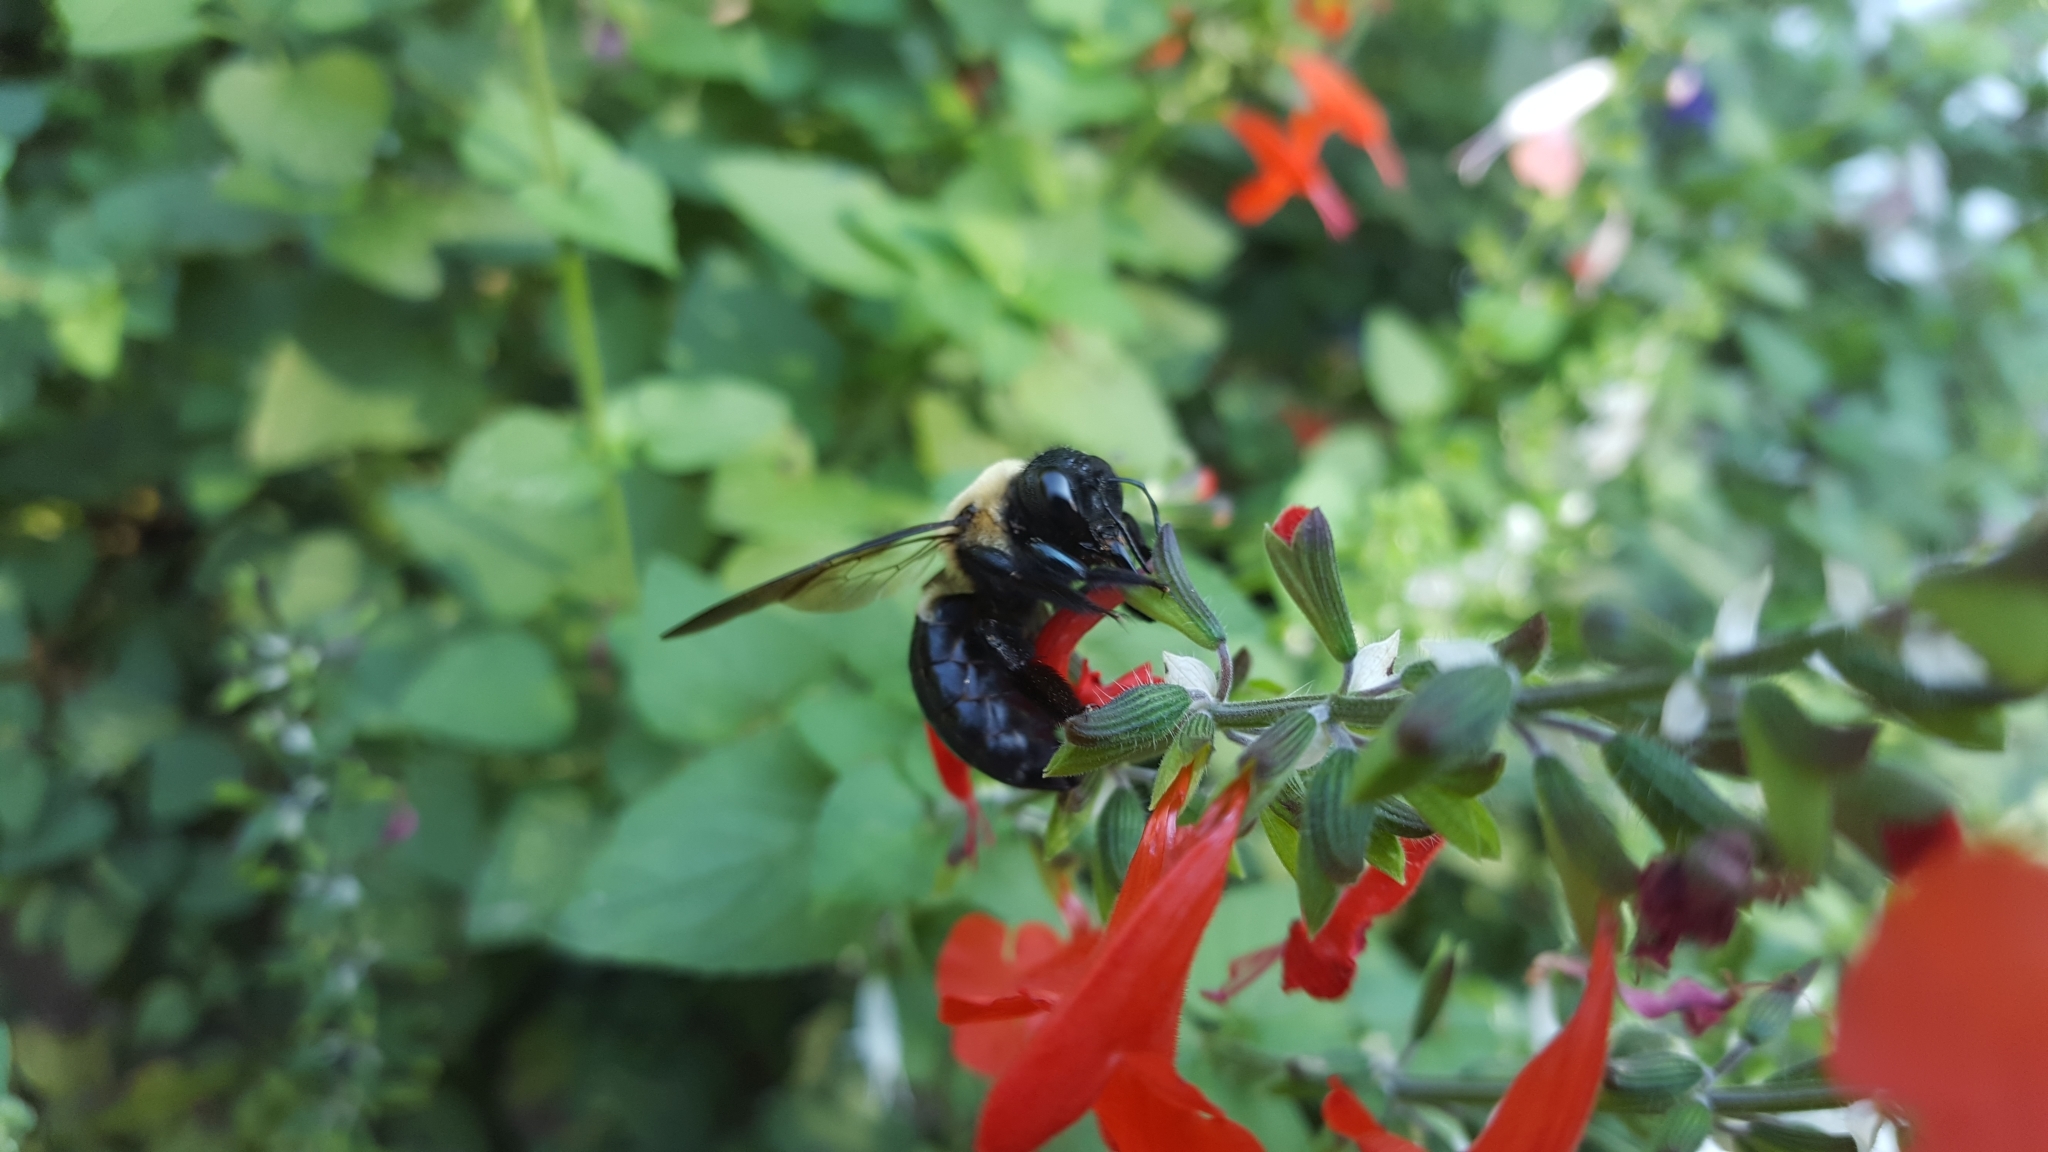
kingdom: Animalia
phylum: Arthropoda
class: Insecta
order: Hymenoptera
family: Apidae
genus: Xylocopa
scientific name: Xylocopa virginica
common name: Carpenter bee
